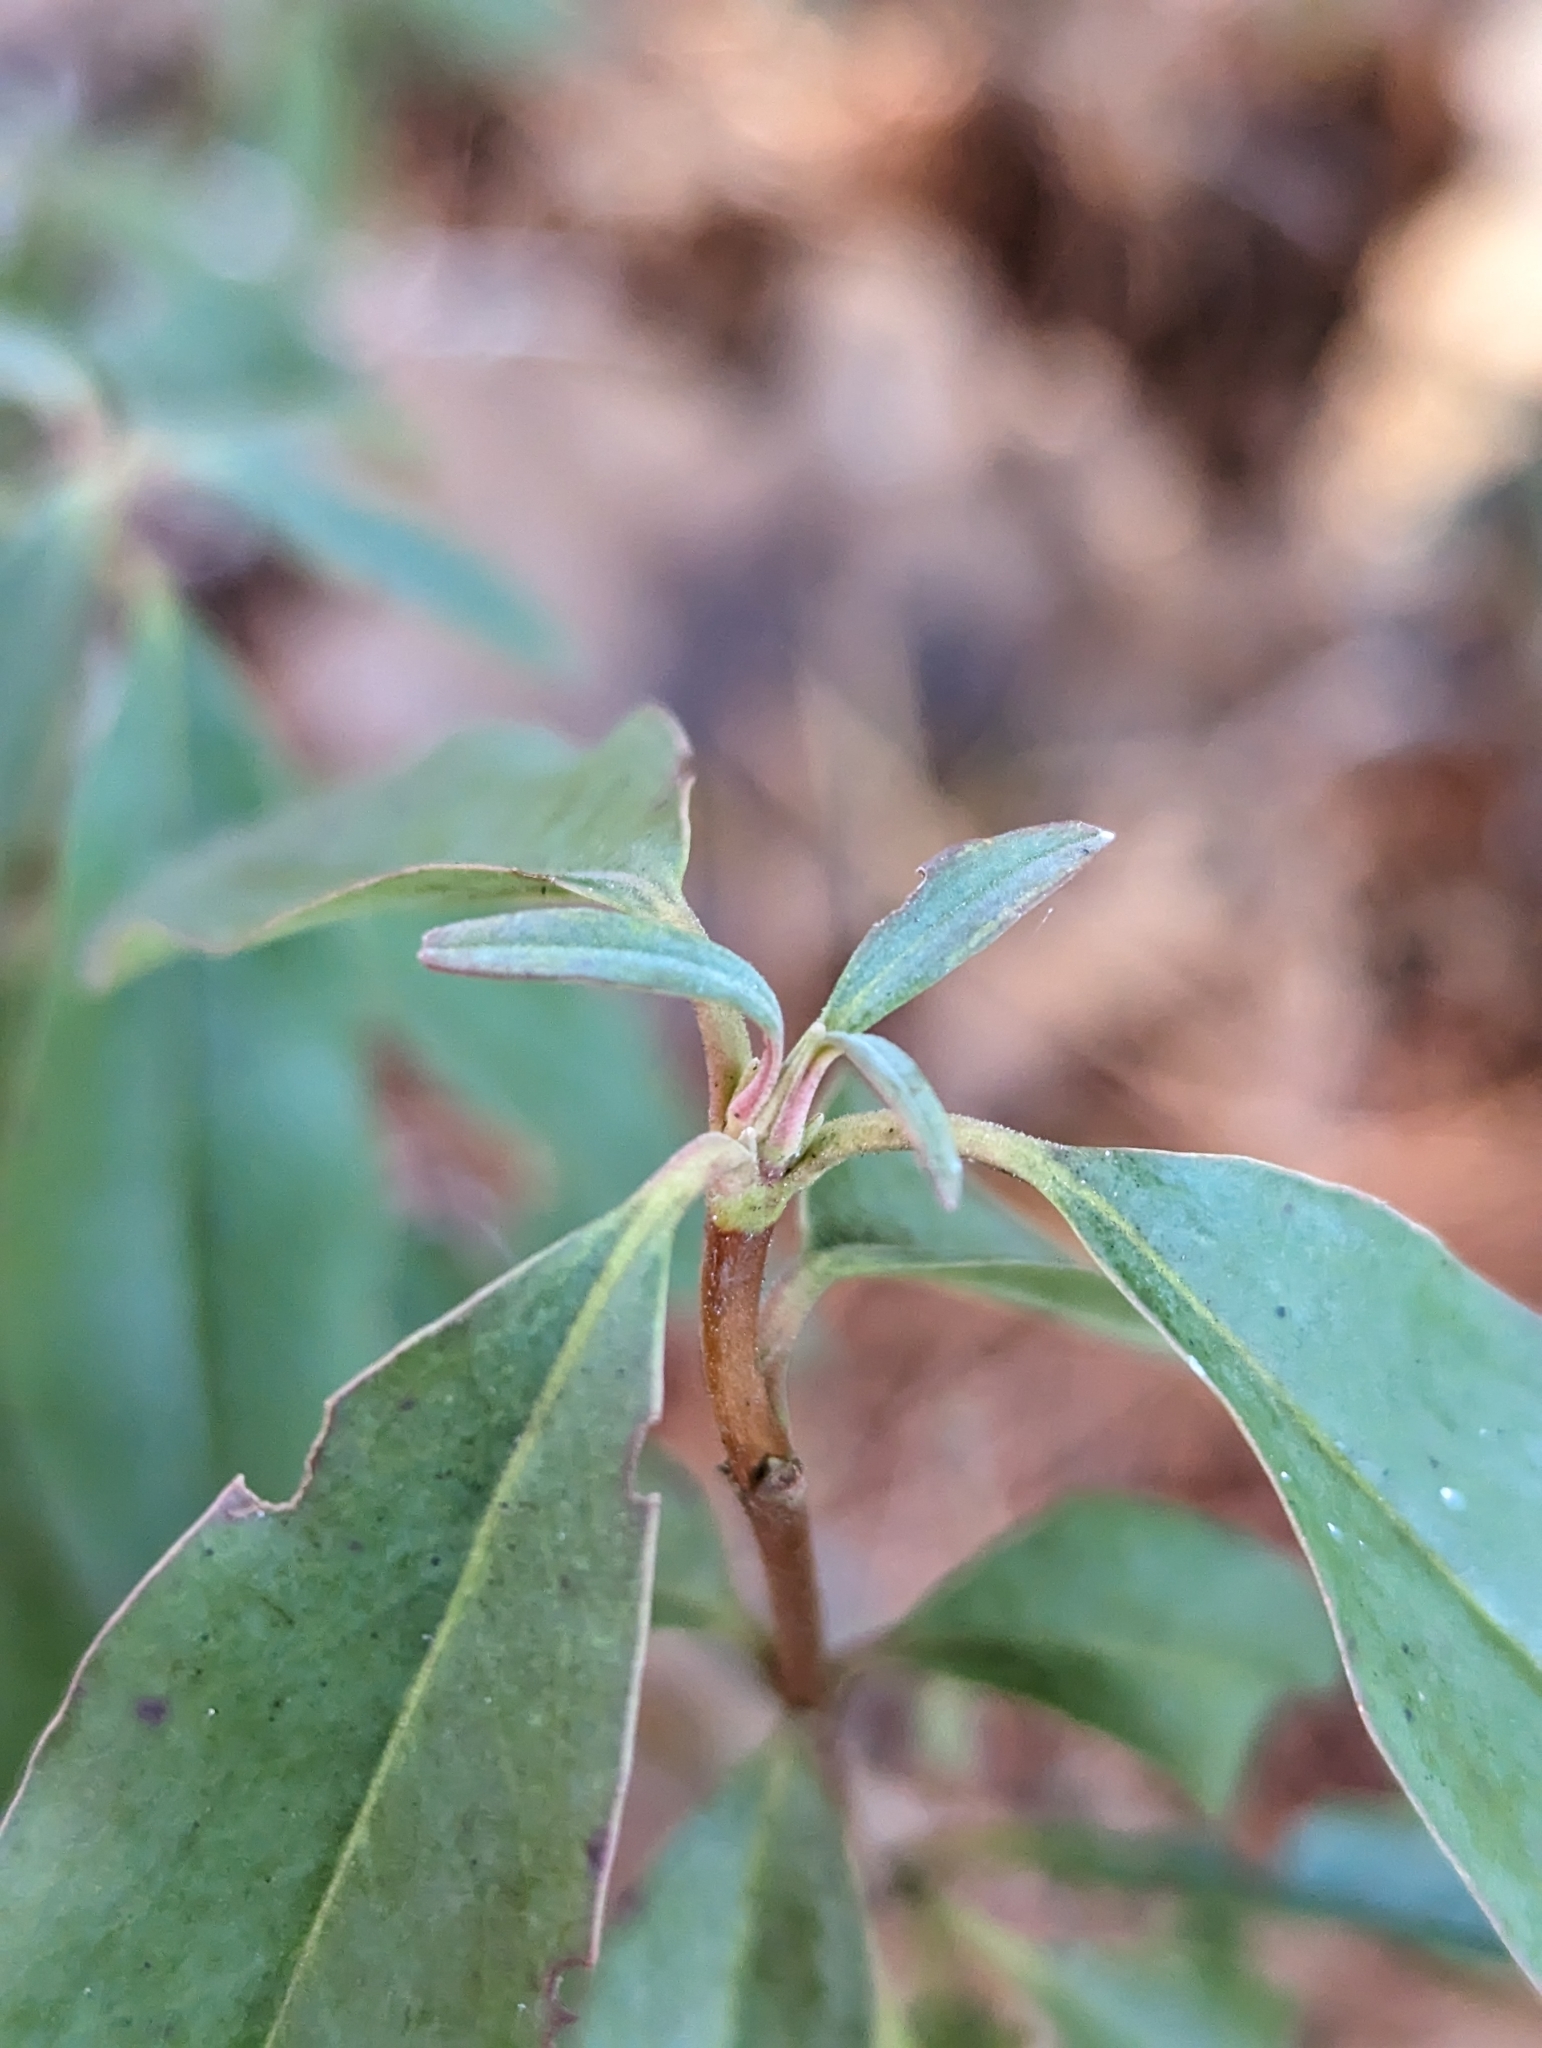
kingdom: Plantae
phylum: Tracheophyta
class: Magnoliopsida
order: Ericales
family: Ericaceae
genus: Kalmia
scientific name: Kalmia angustifolia
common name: Sheep-laurel
